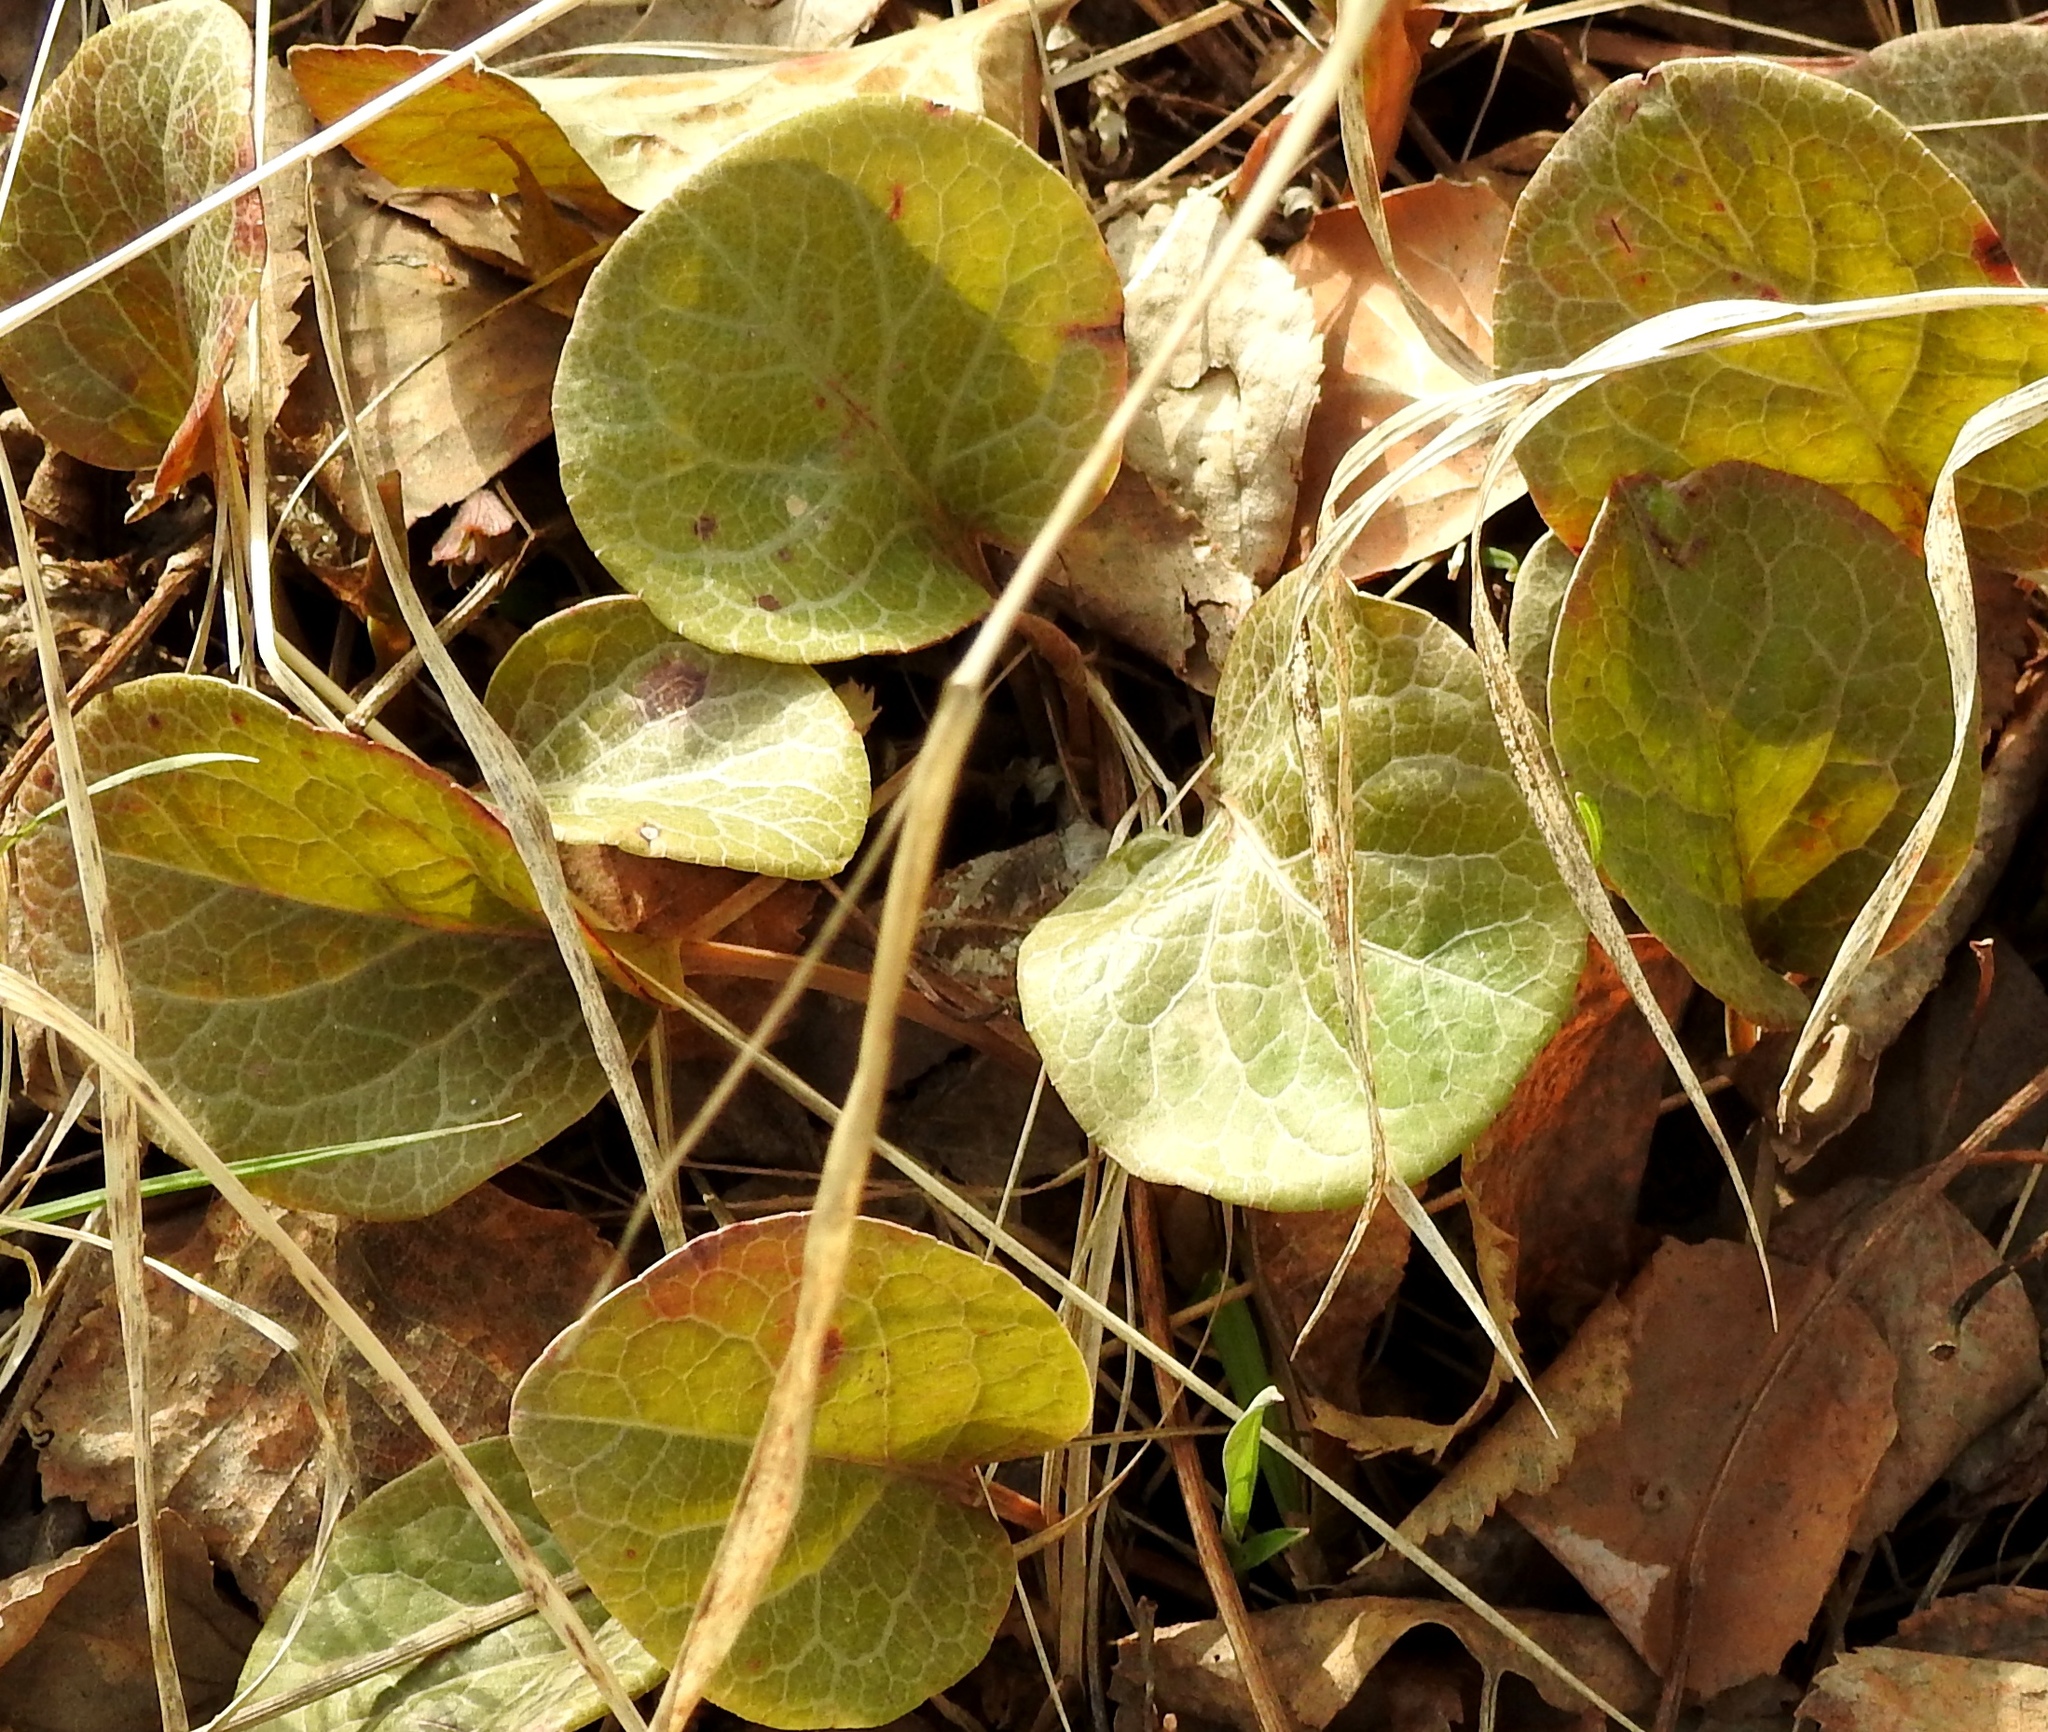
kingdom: Plantae
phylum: Tracheophyta
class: Magnoliopsida
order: Ericales
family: Ericaceae
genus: Pyrola
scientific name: Pyrola asarifolia
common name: Bog wintergreen
